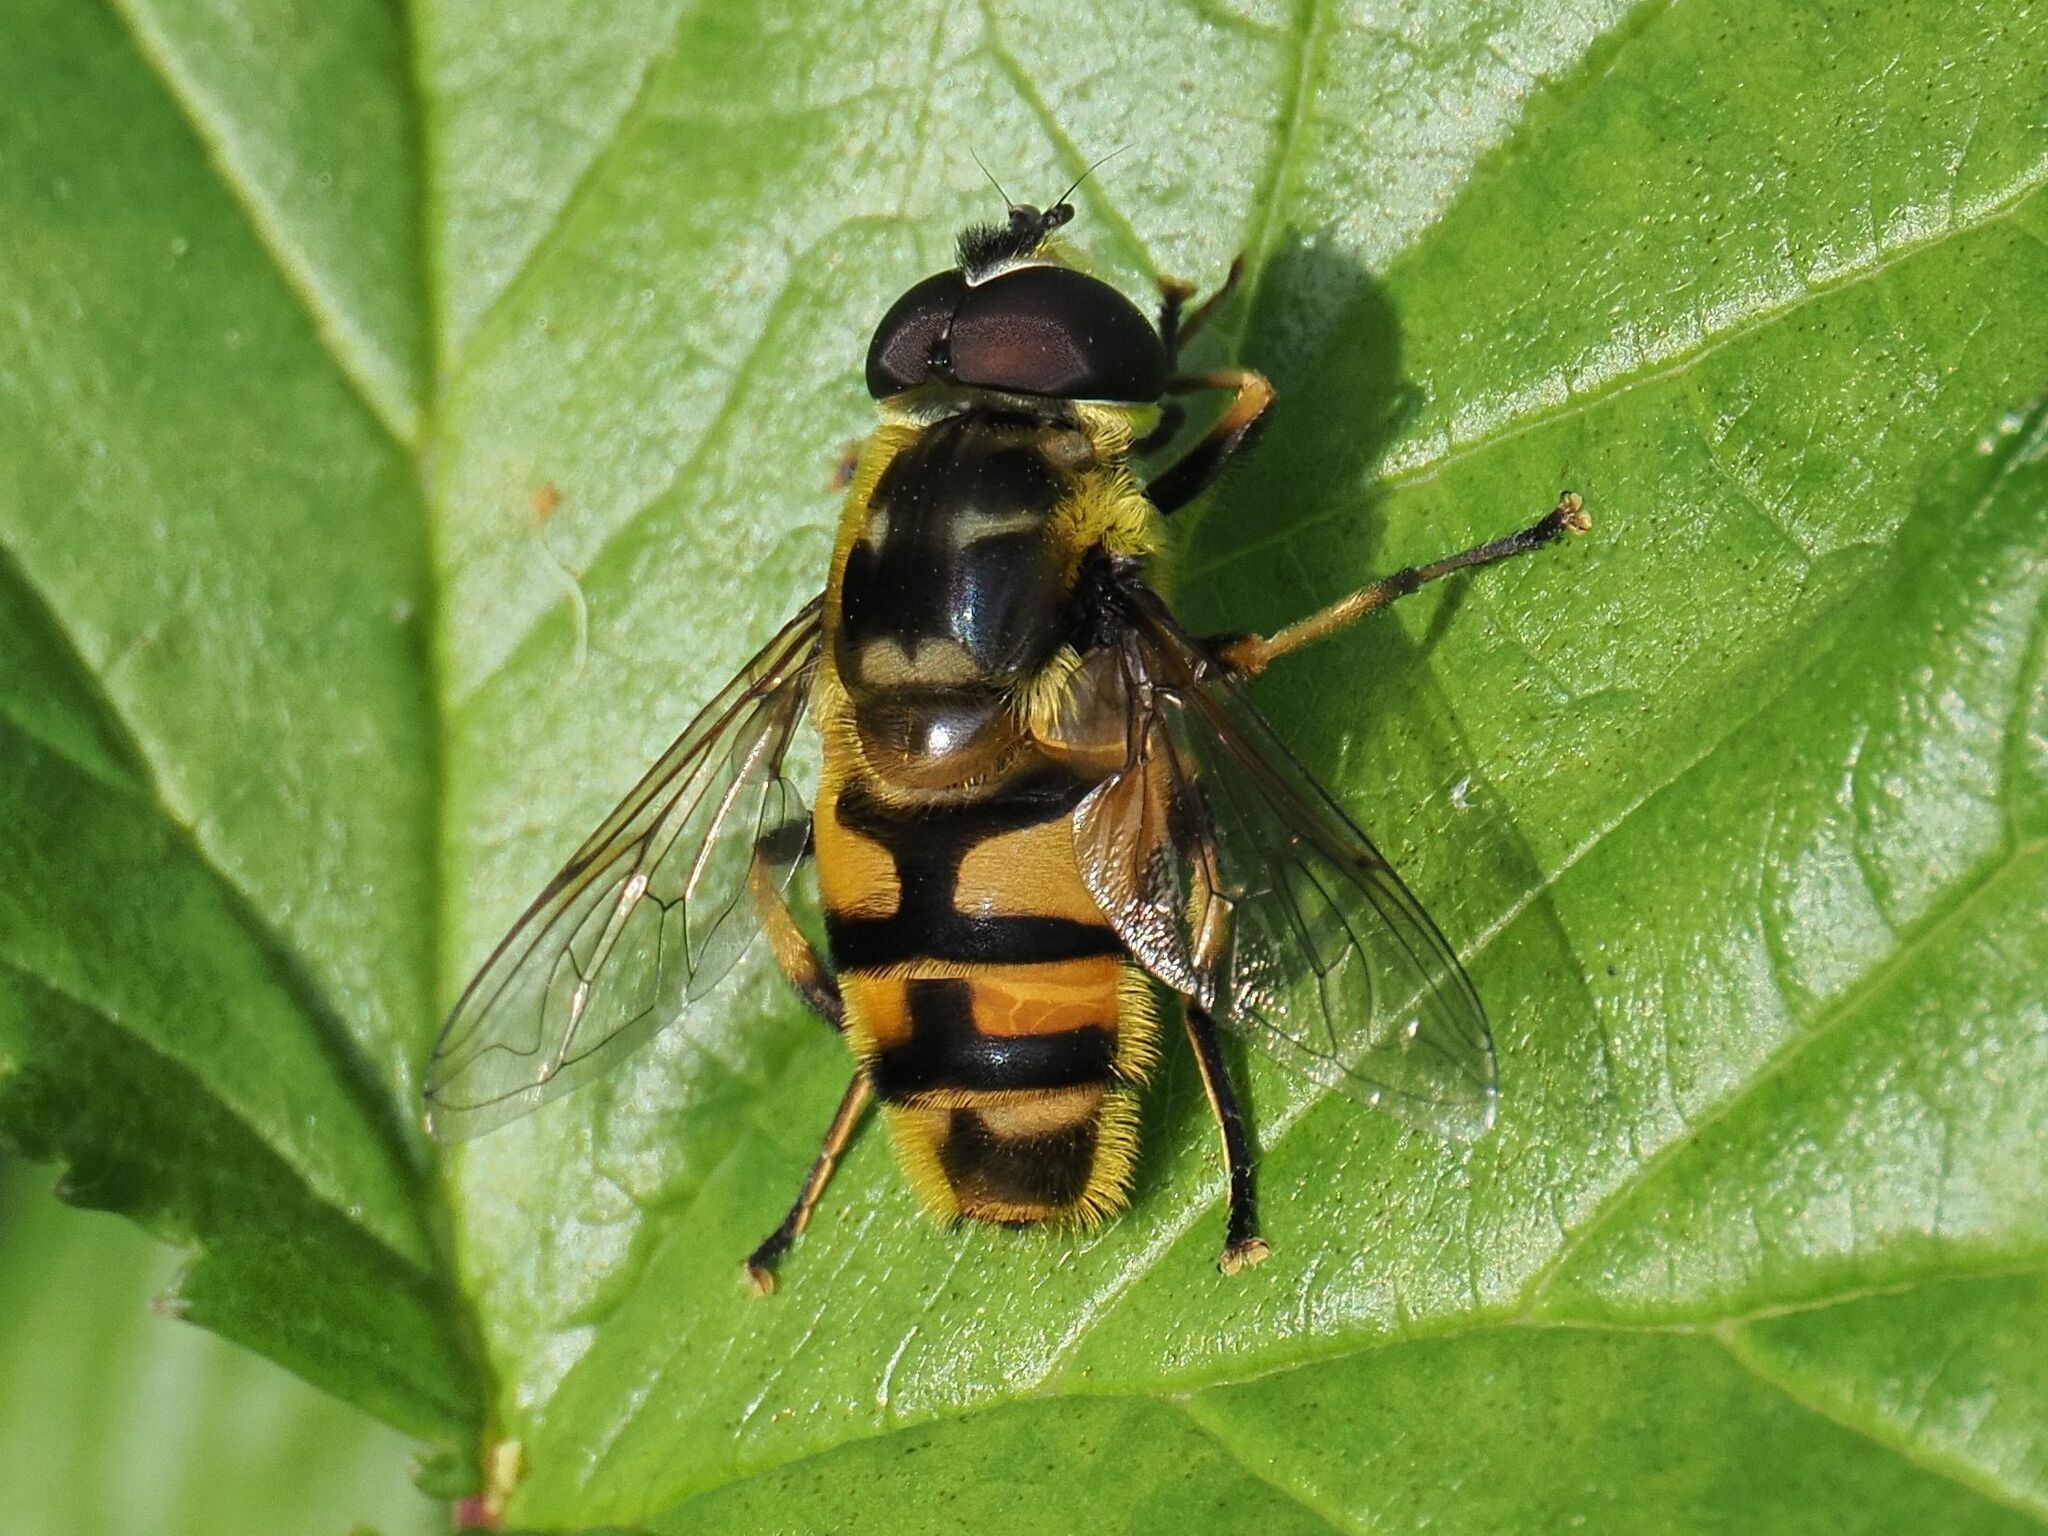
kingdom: Animalia
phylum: Arthropoda
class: Insecta
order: Diptera
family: Syrphidae
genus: Myathropa
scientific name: Myathropa florea
